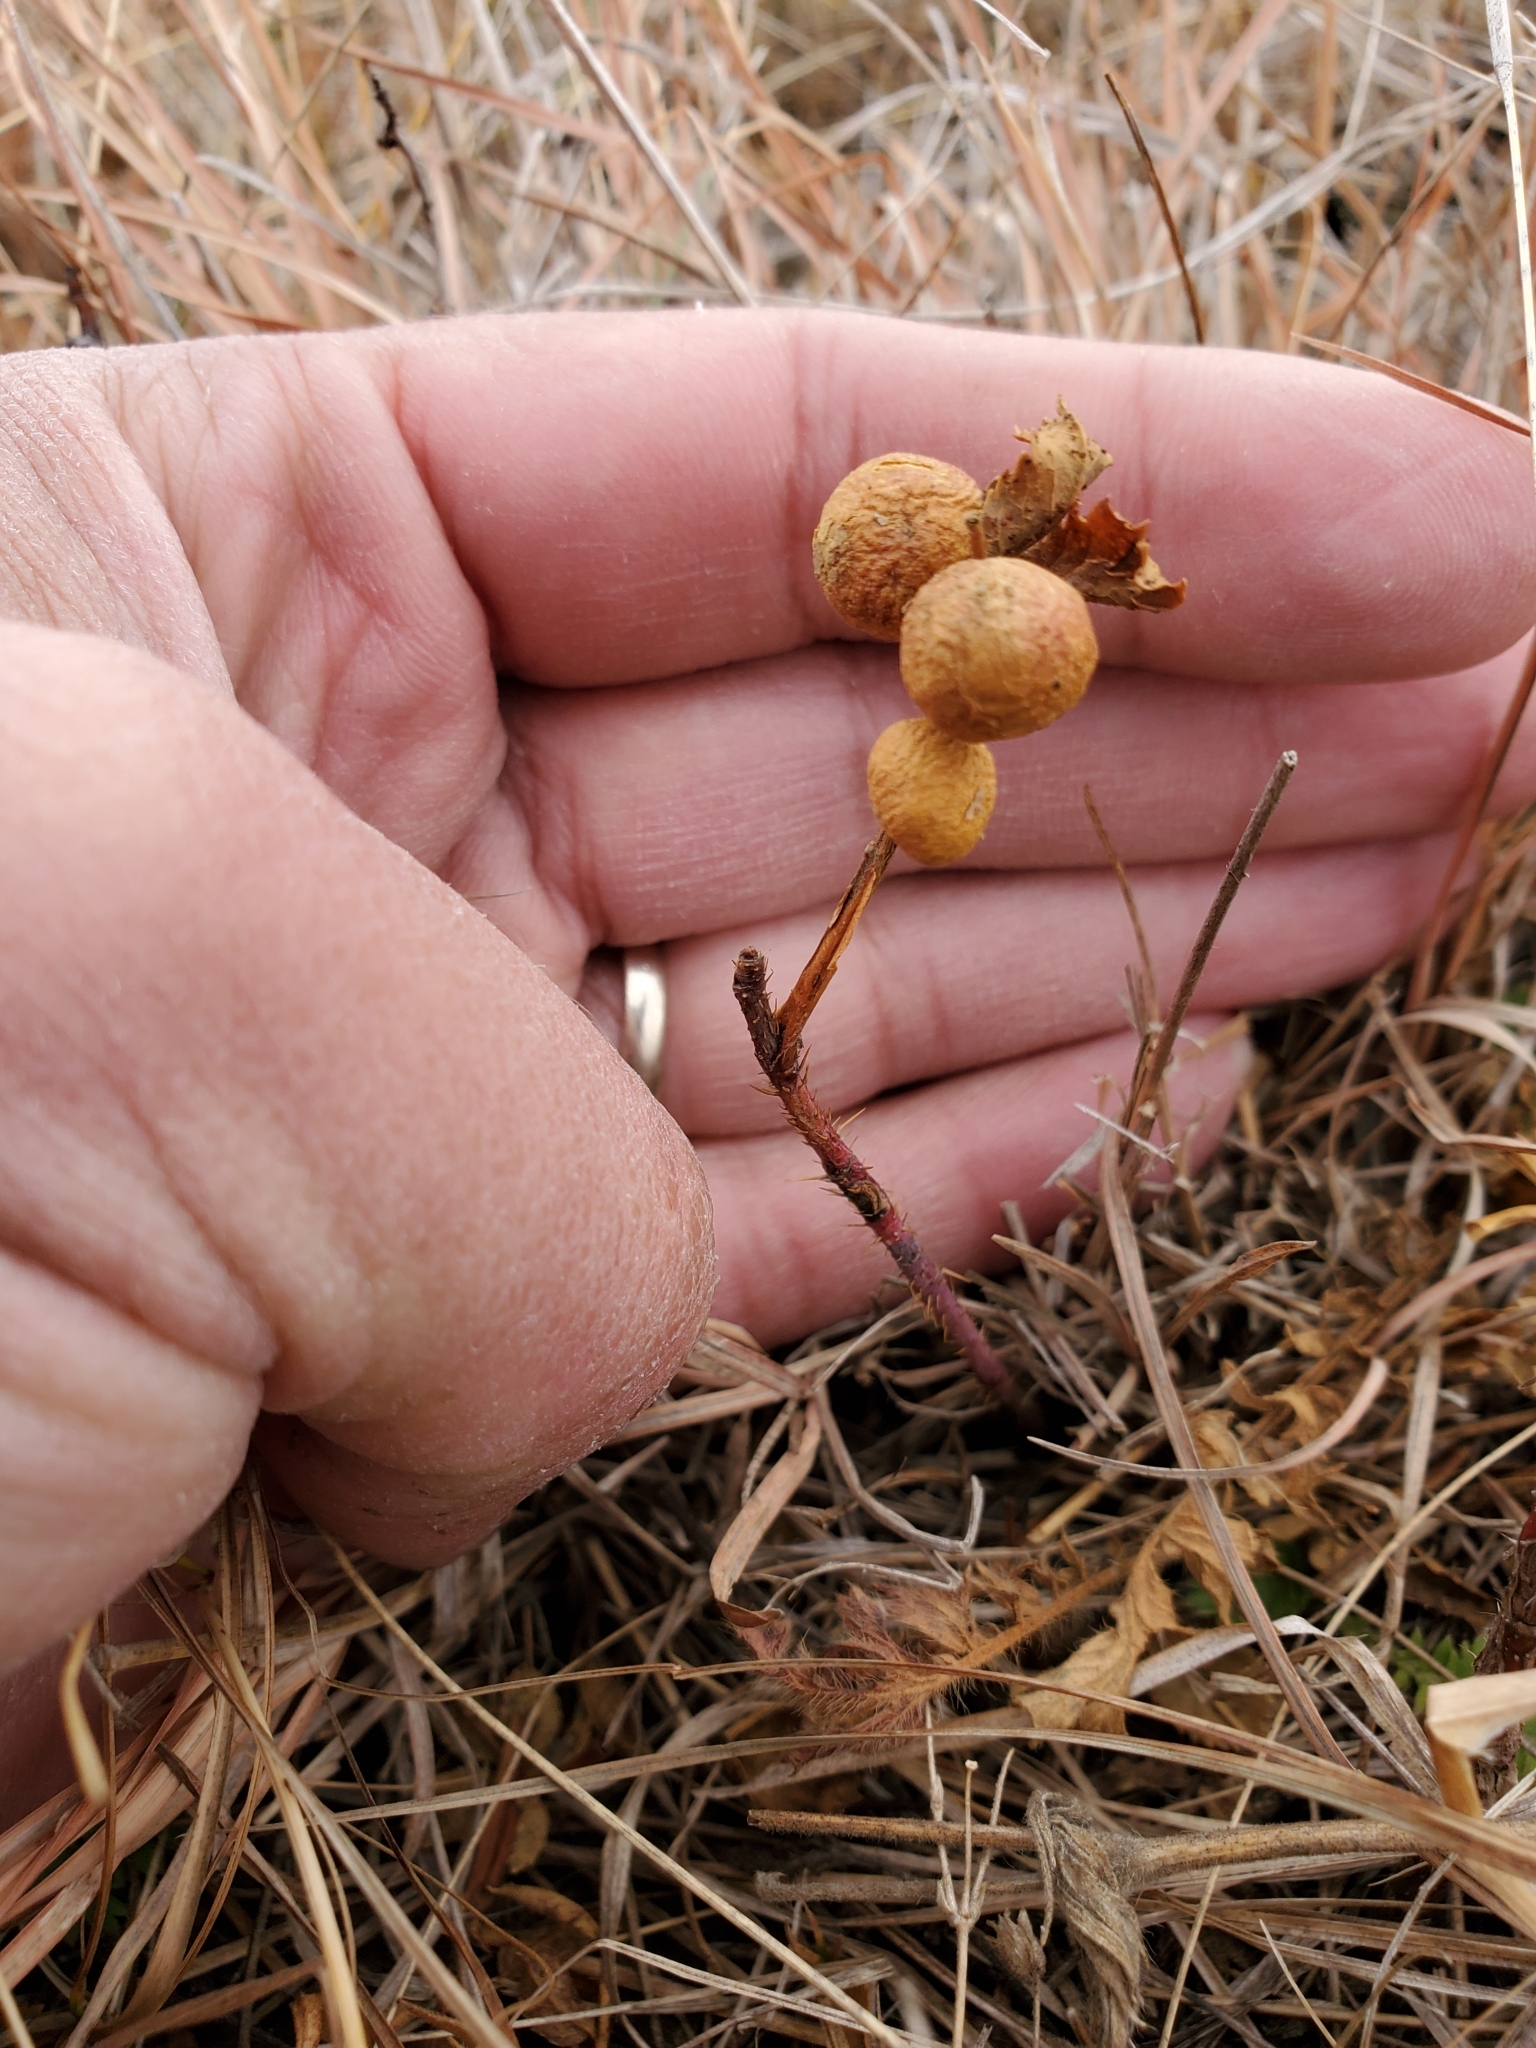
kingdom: Animalia
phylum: Arthropoda
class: Insecta
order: Hymenoptera
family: Cynipidae
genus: Diplolepis
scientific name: Diplolepis ignota
